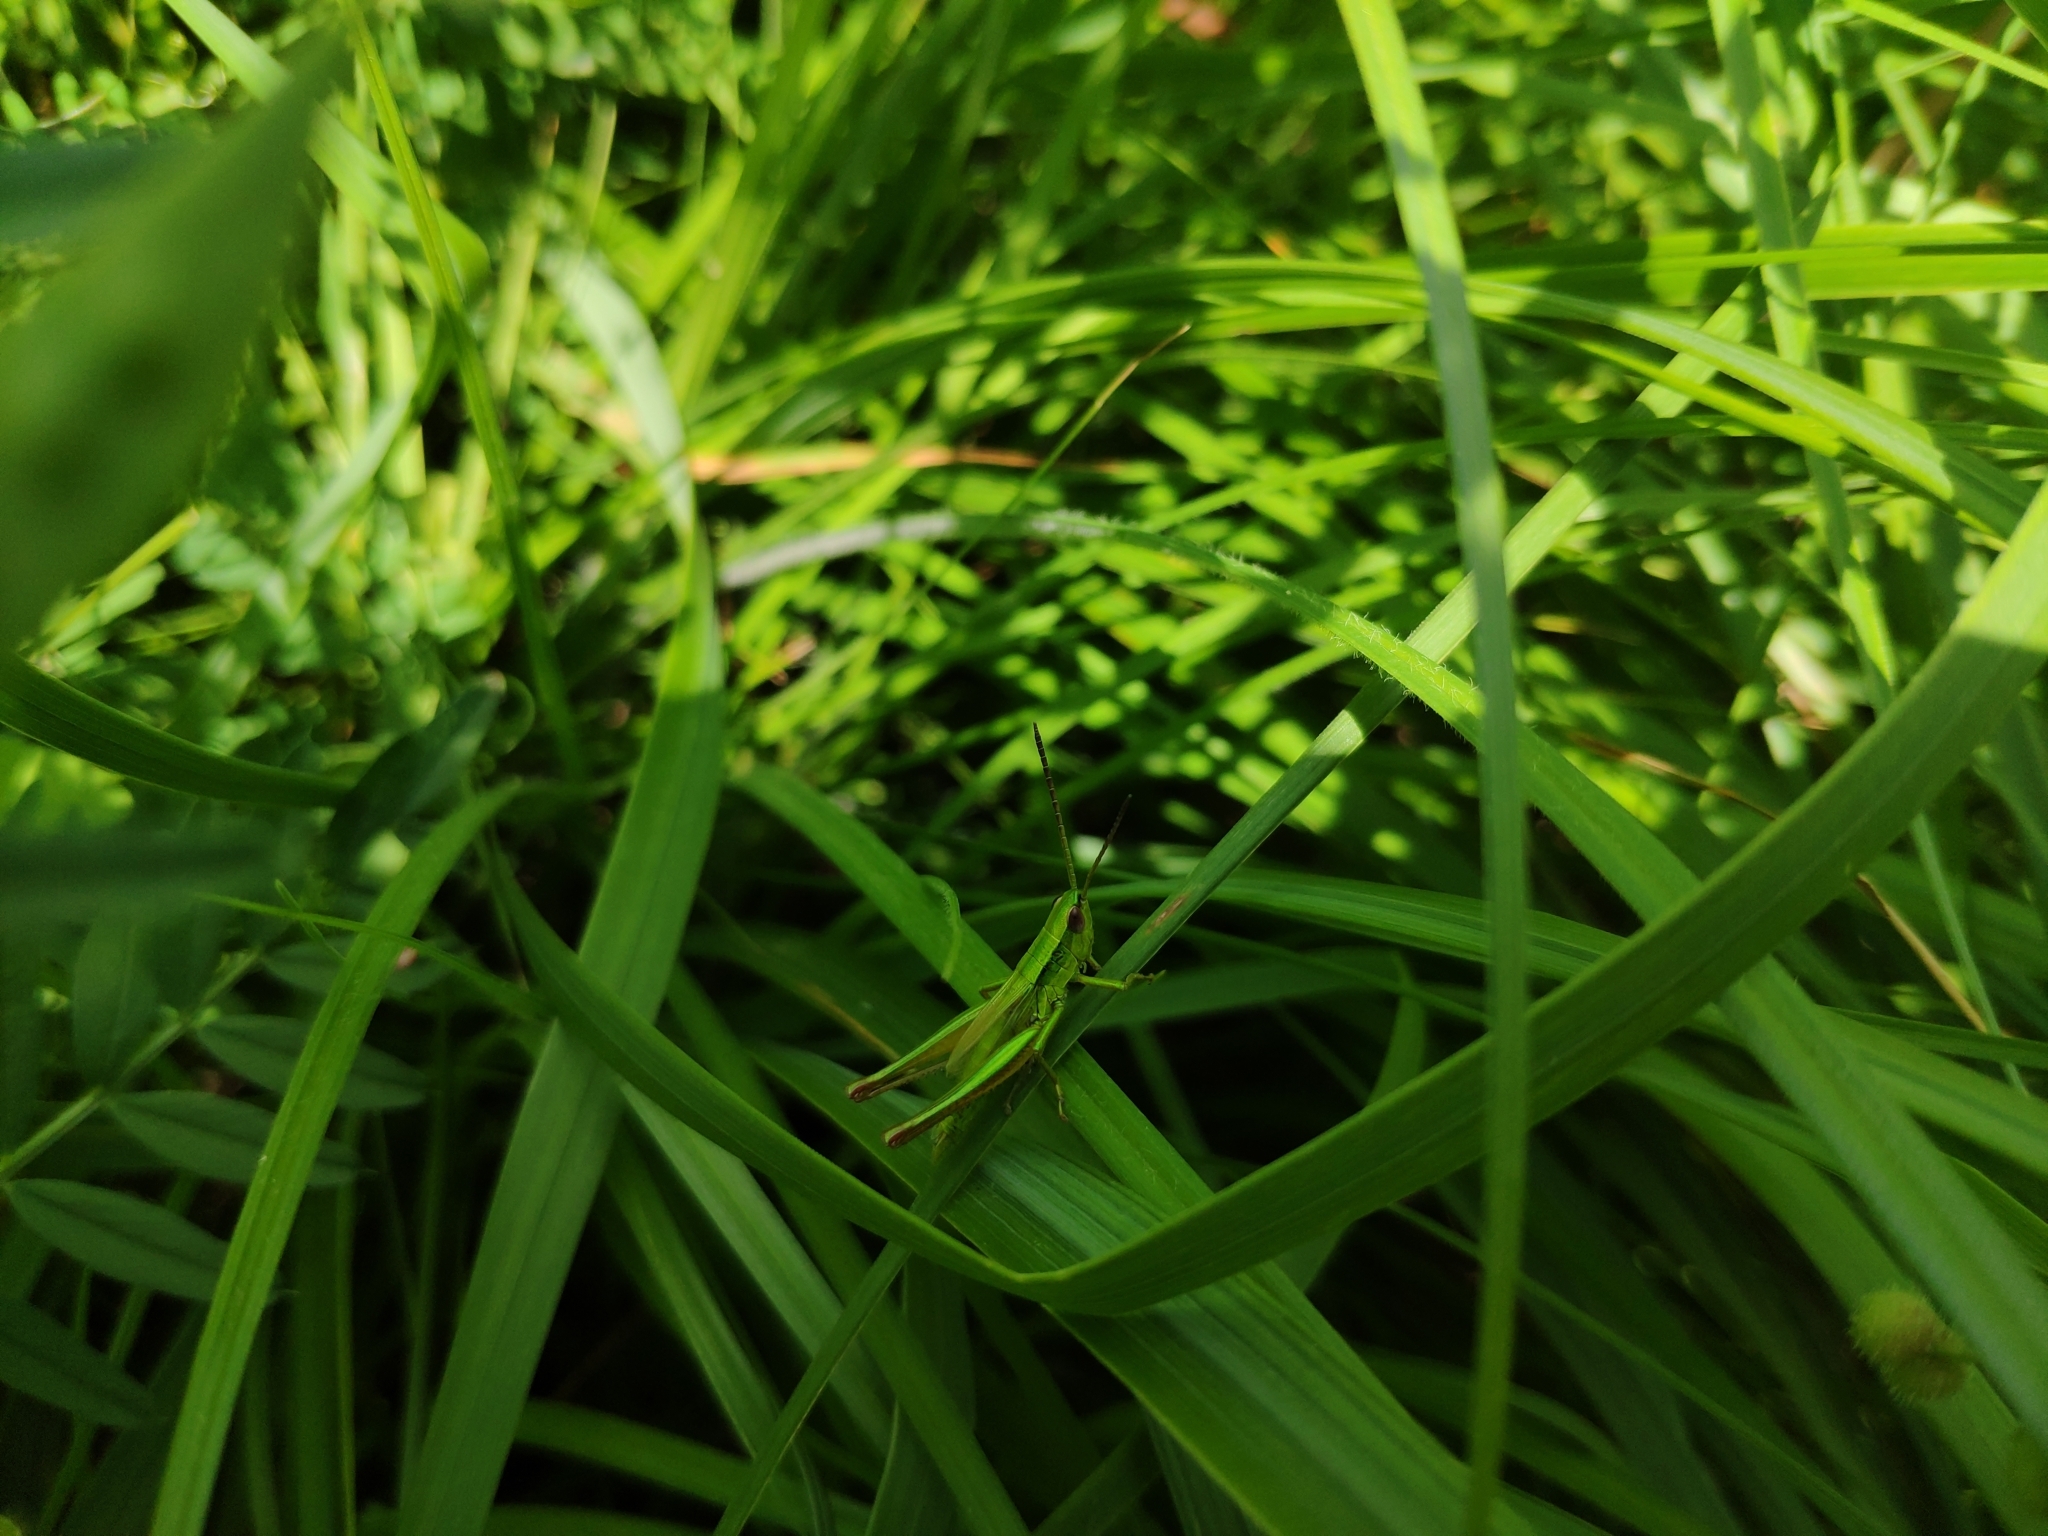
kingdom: Animalia
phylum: Arthropoda
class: Insecta
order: Orthoptera
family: Acrididae
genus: Euthystira
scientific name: Euthystira brachyptera
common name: Small gold grasshopper
